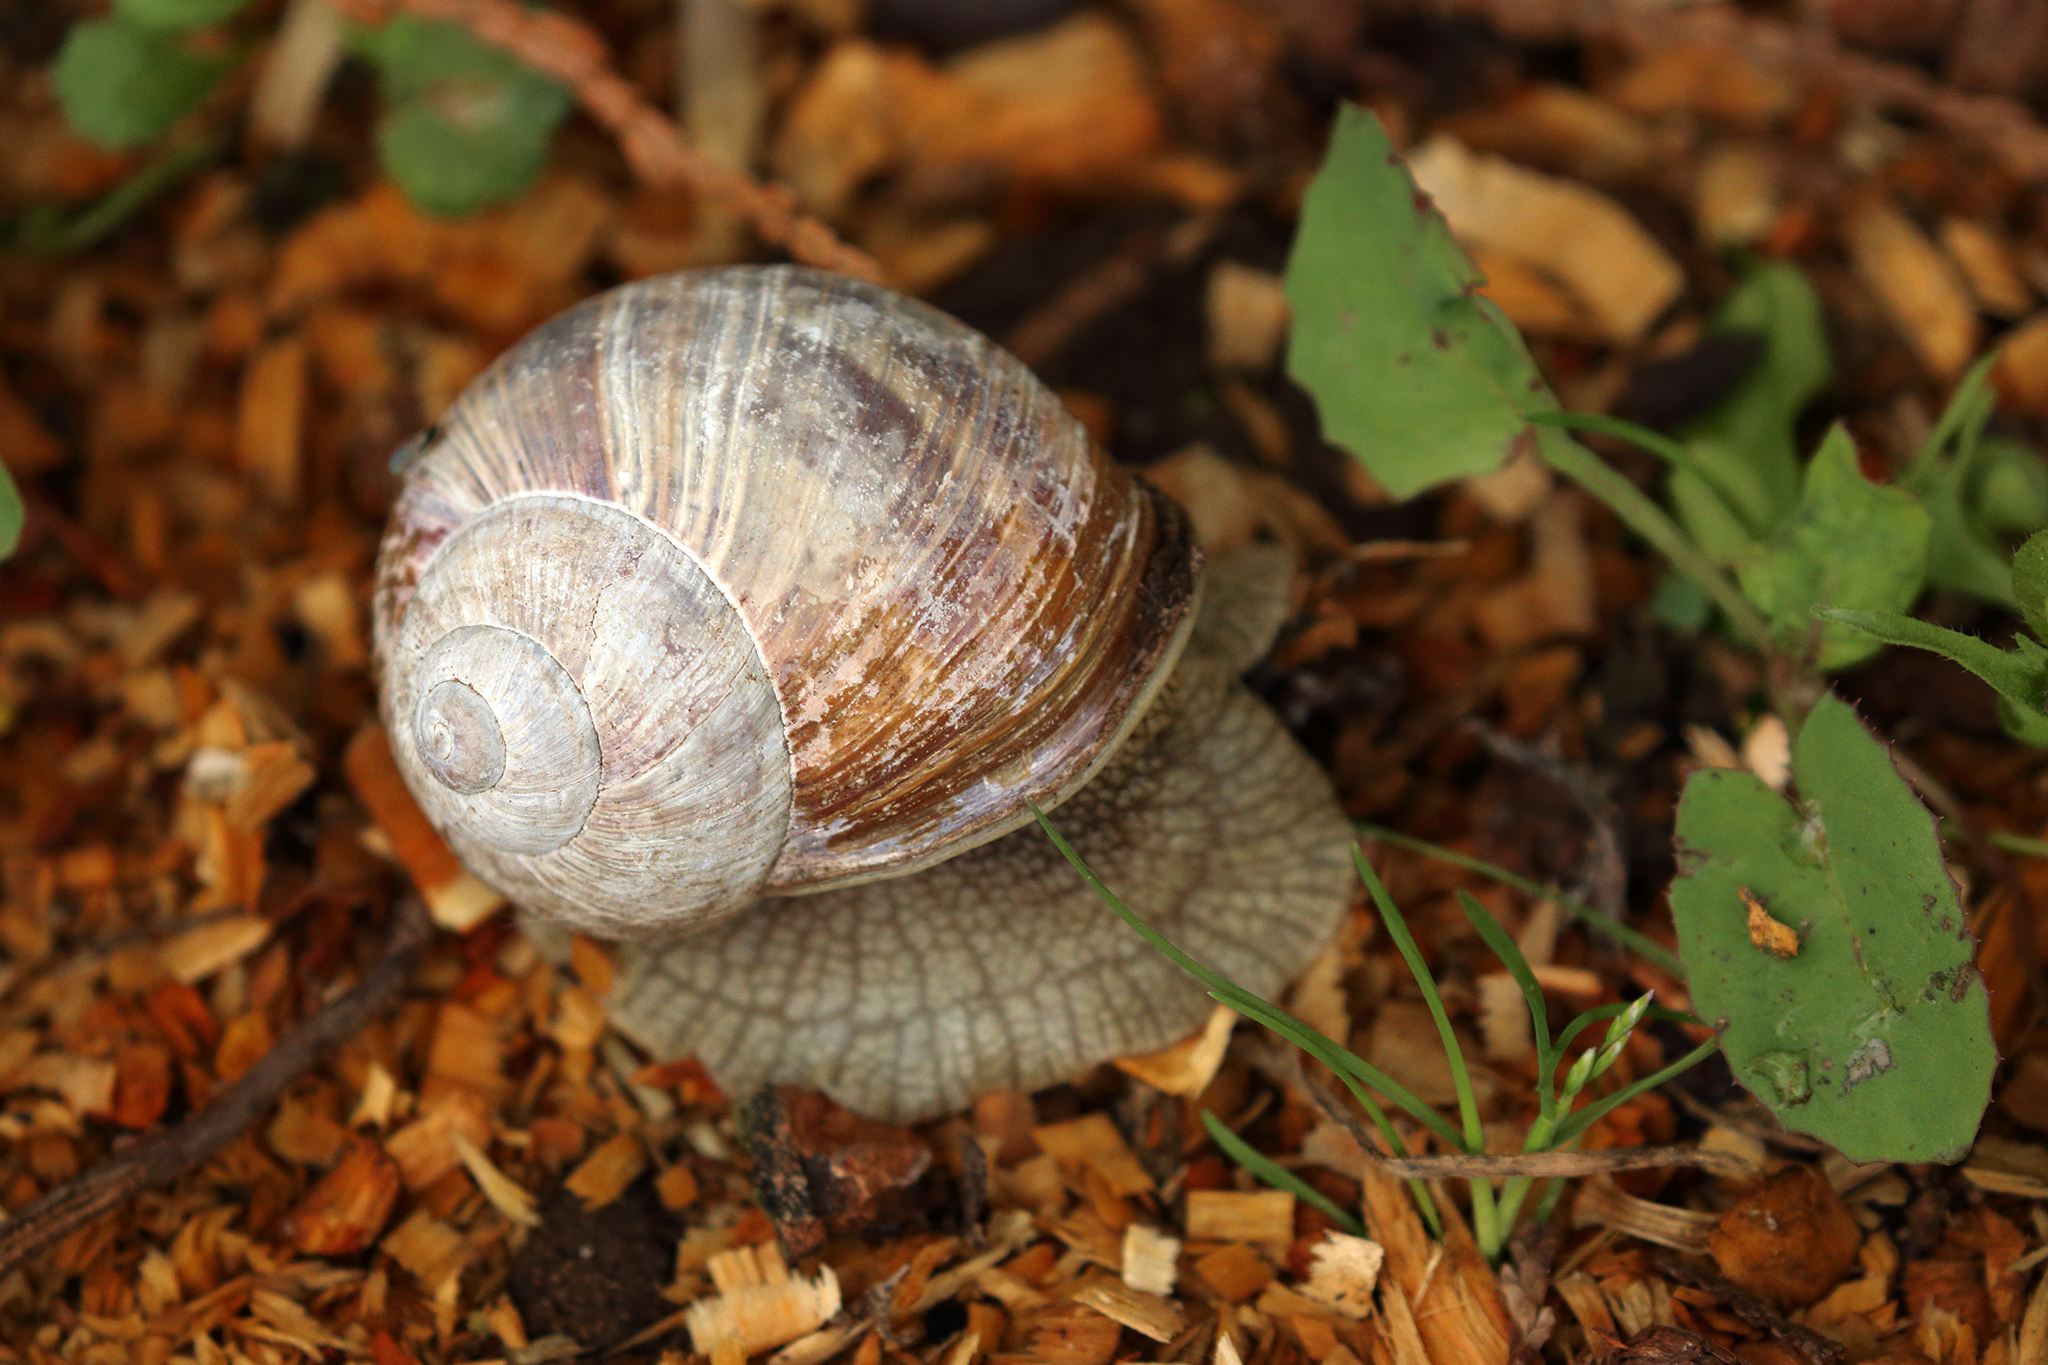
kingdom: Animalia
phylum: Mollusca
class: Gastropoda
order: Stylommatophora
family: Helicidae
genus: Helix
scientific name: Helix pomatia
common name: Roman snail
